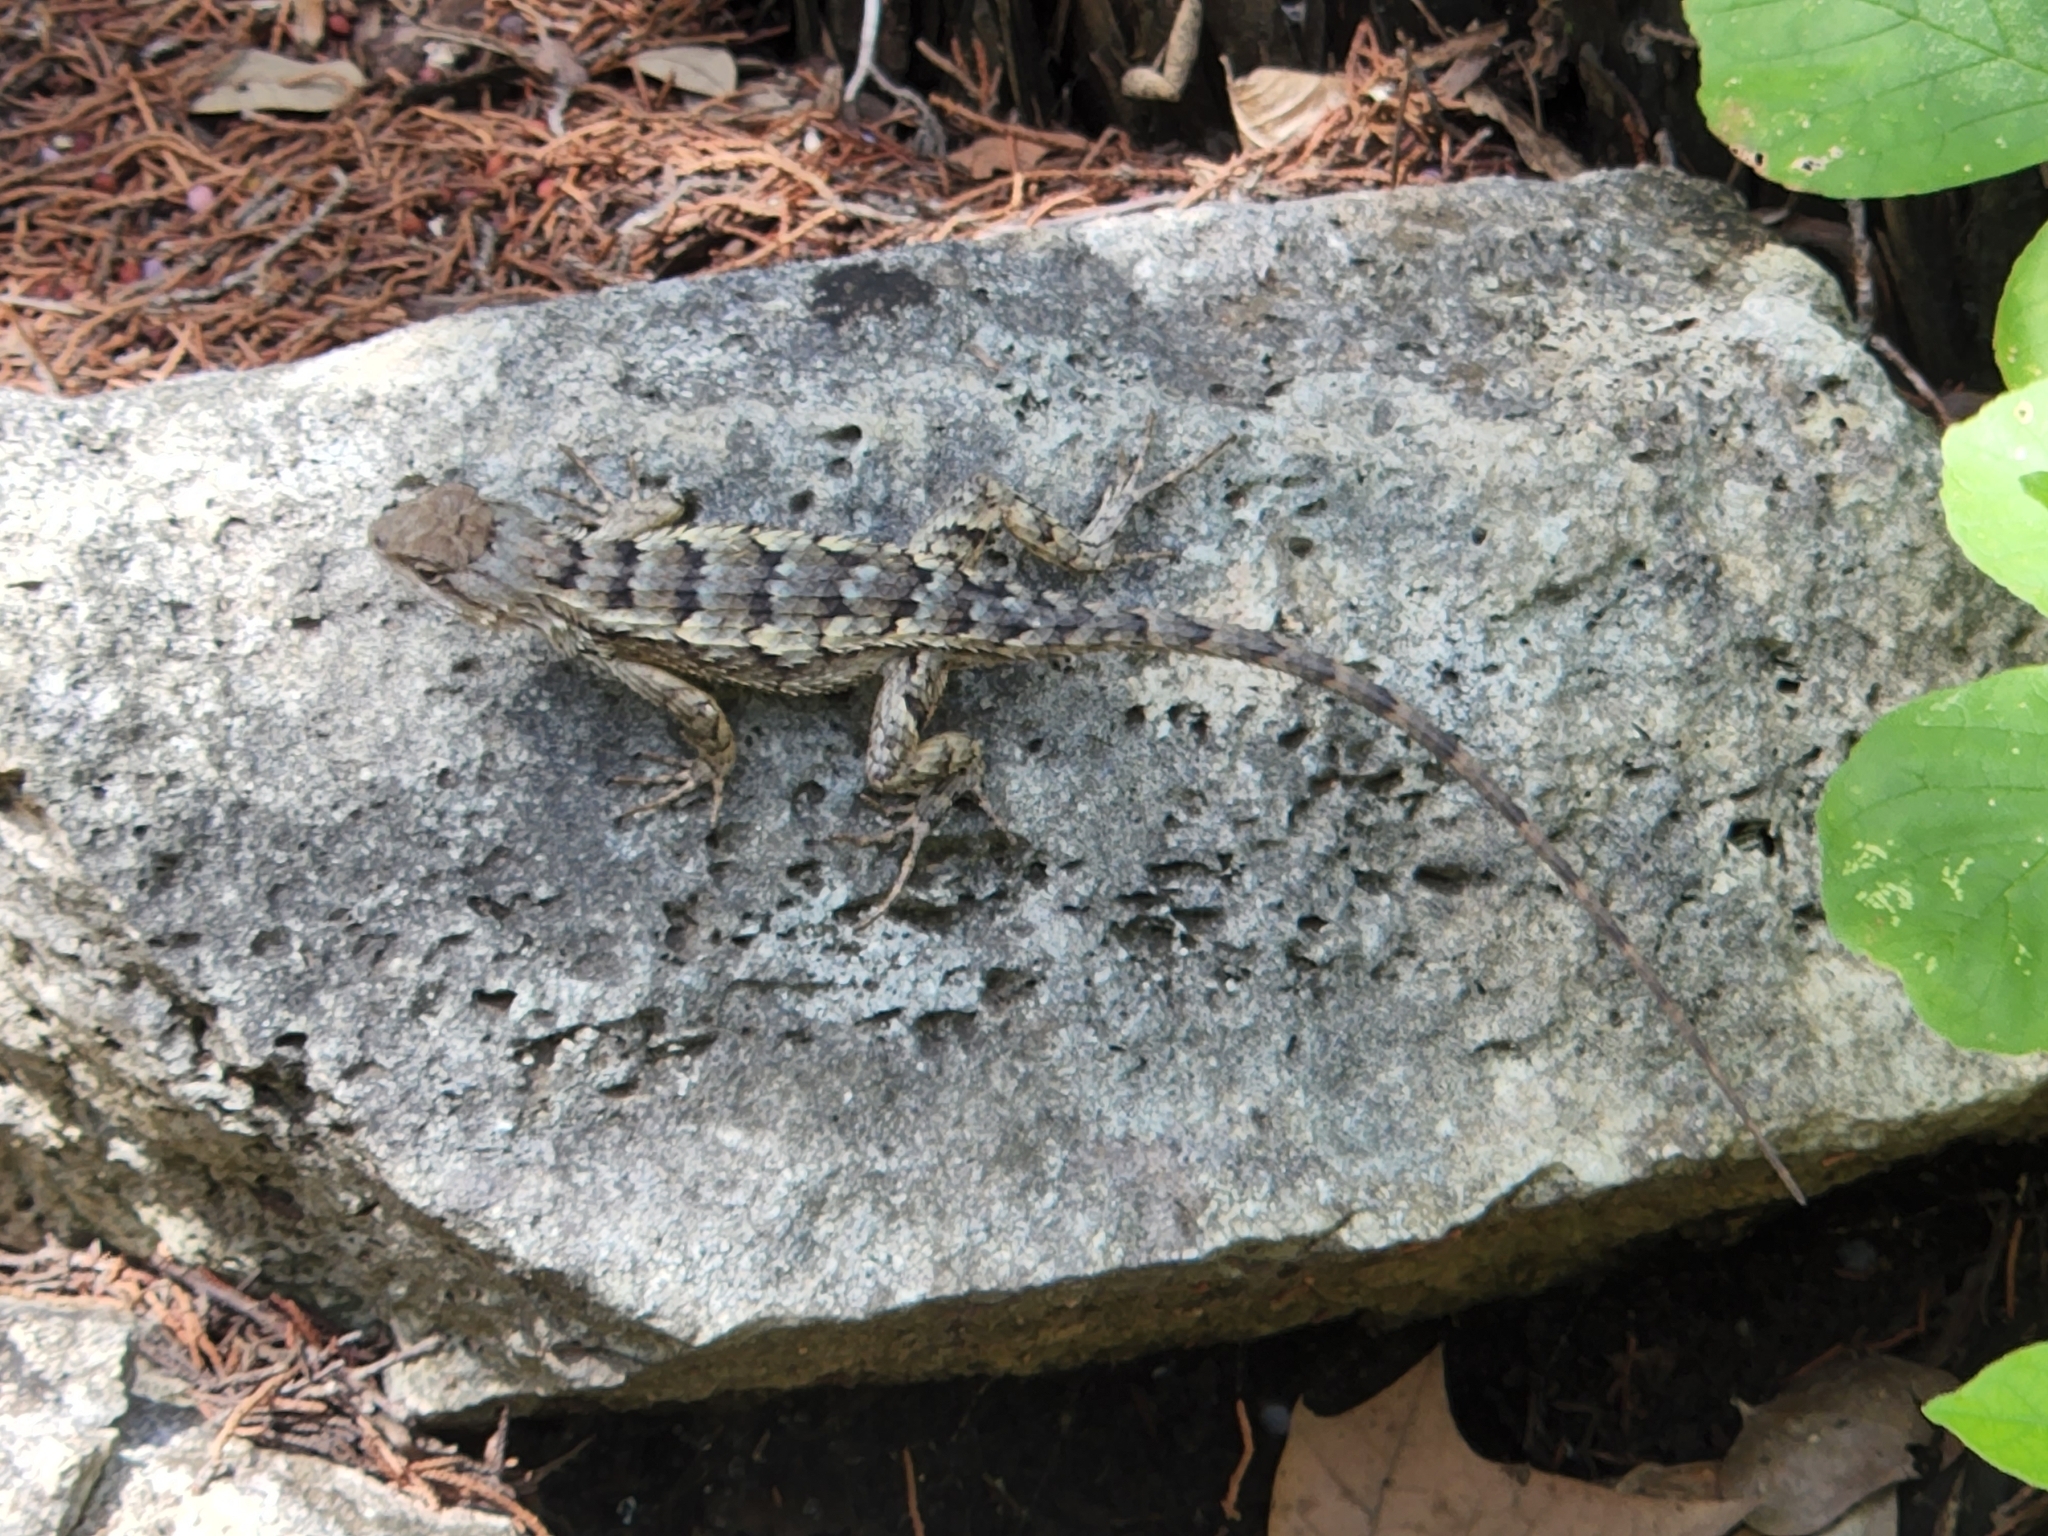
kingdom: Animalia
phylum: Chordata
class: Squamata
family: Phrynosomatidae
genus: Sceloporus
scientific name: Sceloporus olivaceus
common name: Texas spiny lizard
